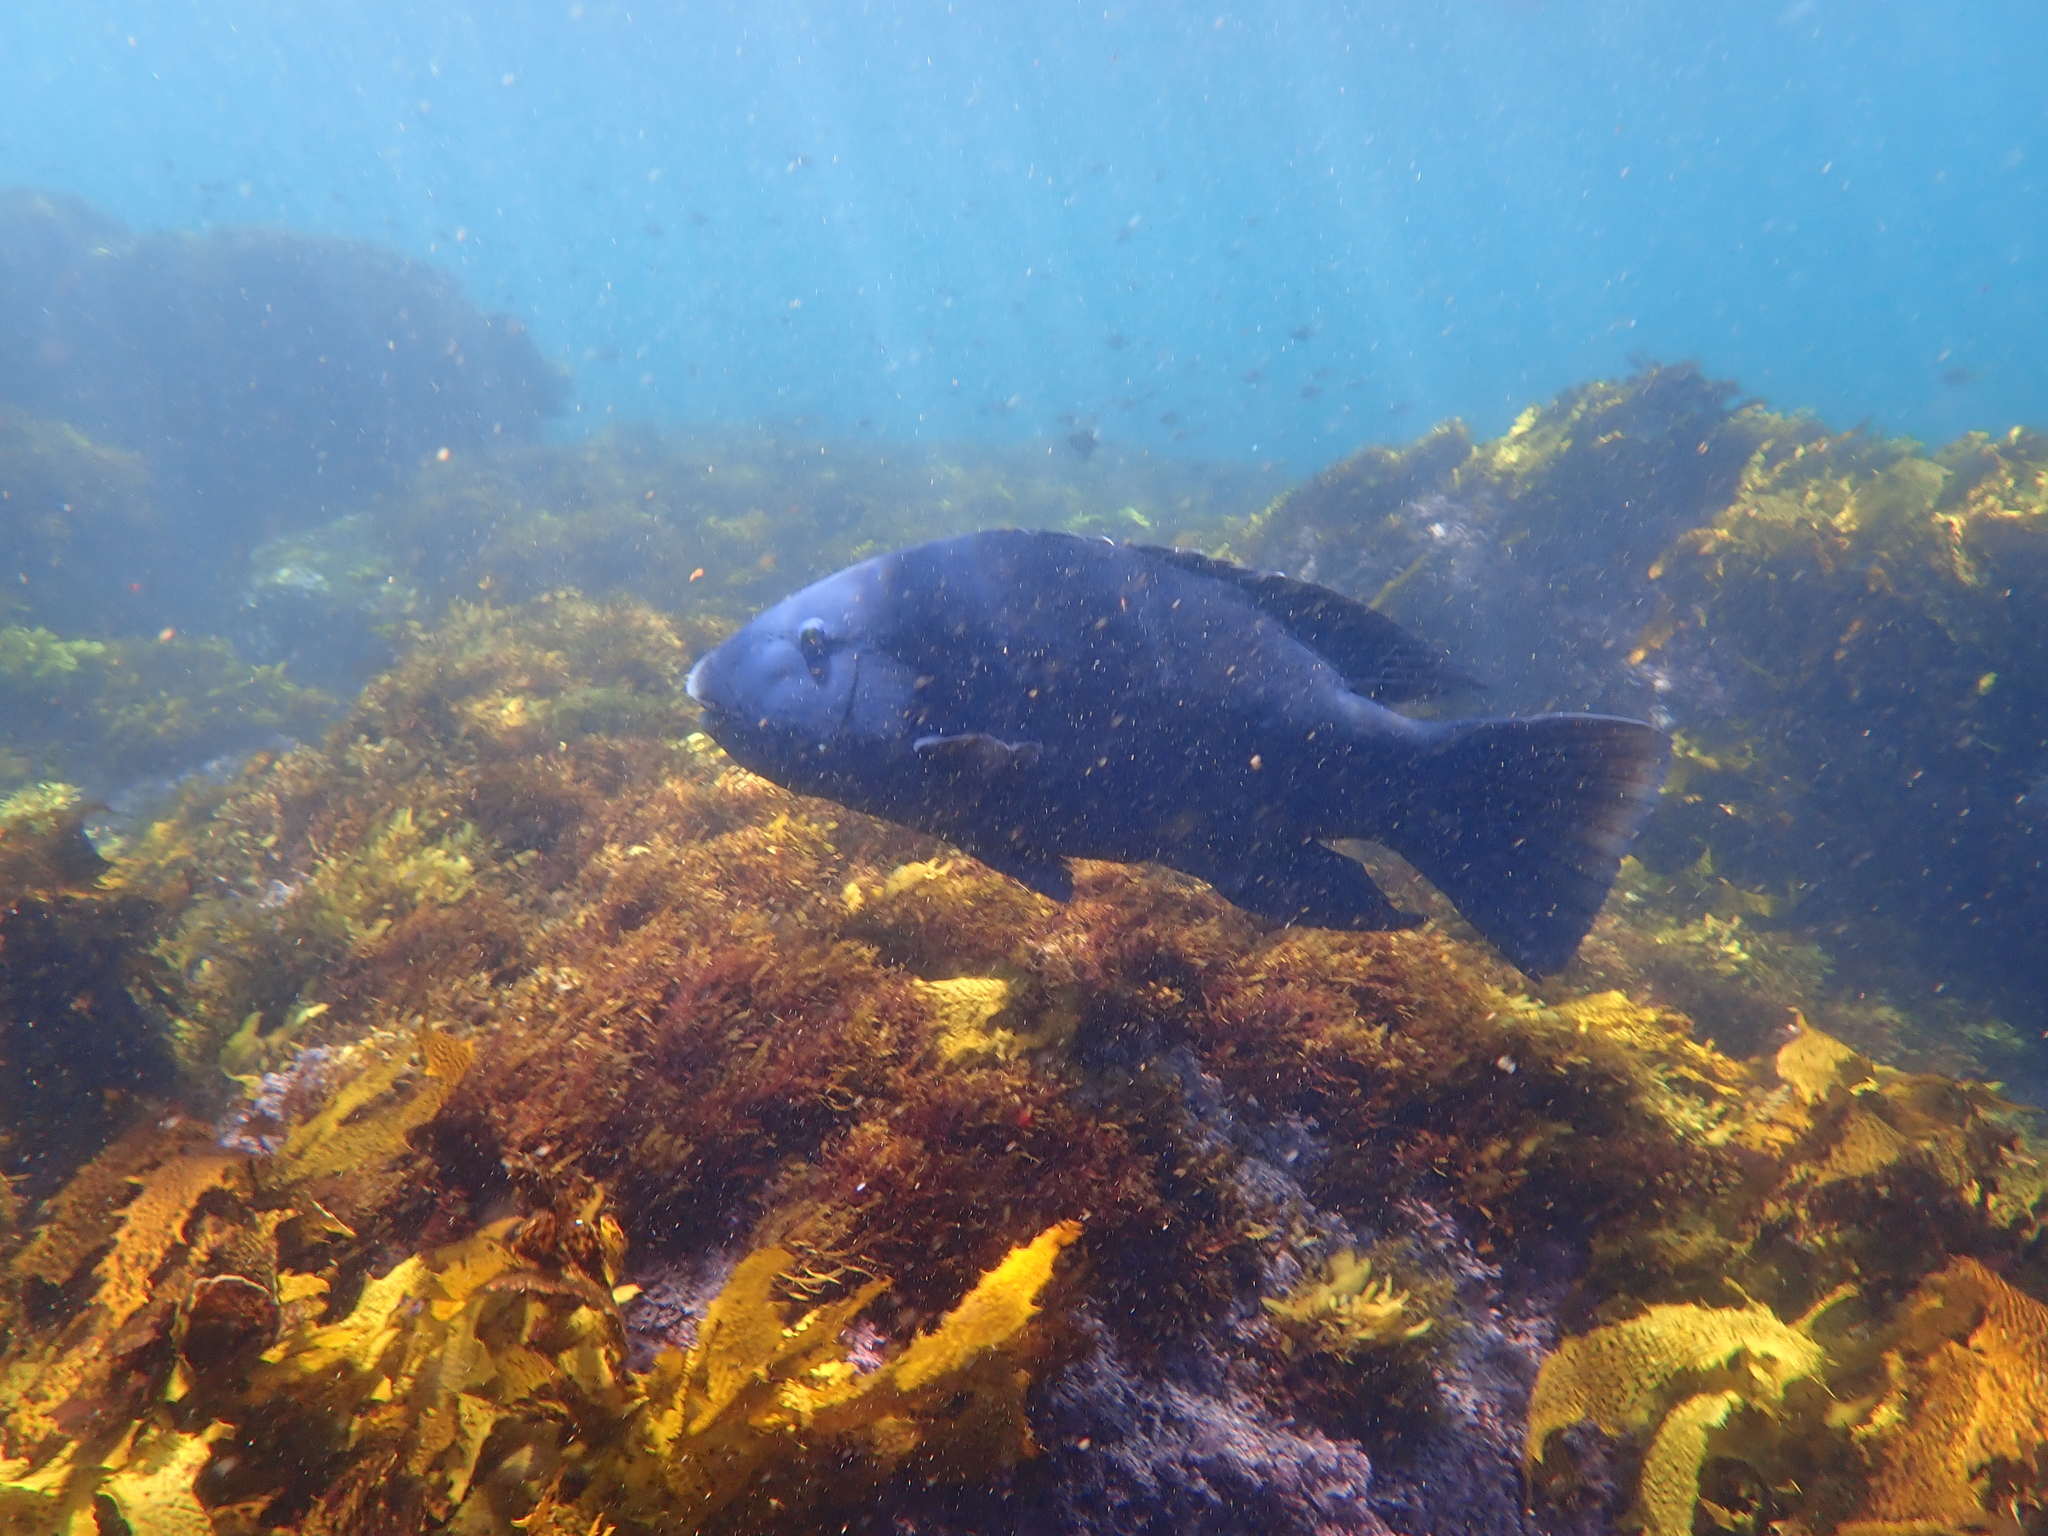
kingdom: Animalia
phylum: Chordata
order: Perciformes
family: Labridae
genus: Achoerodus
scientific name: Achoerodus viridis
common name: Brown groper
